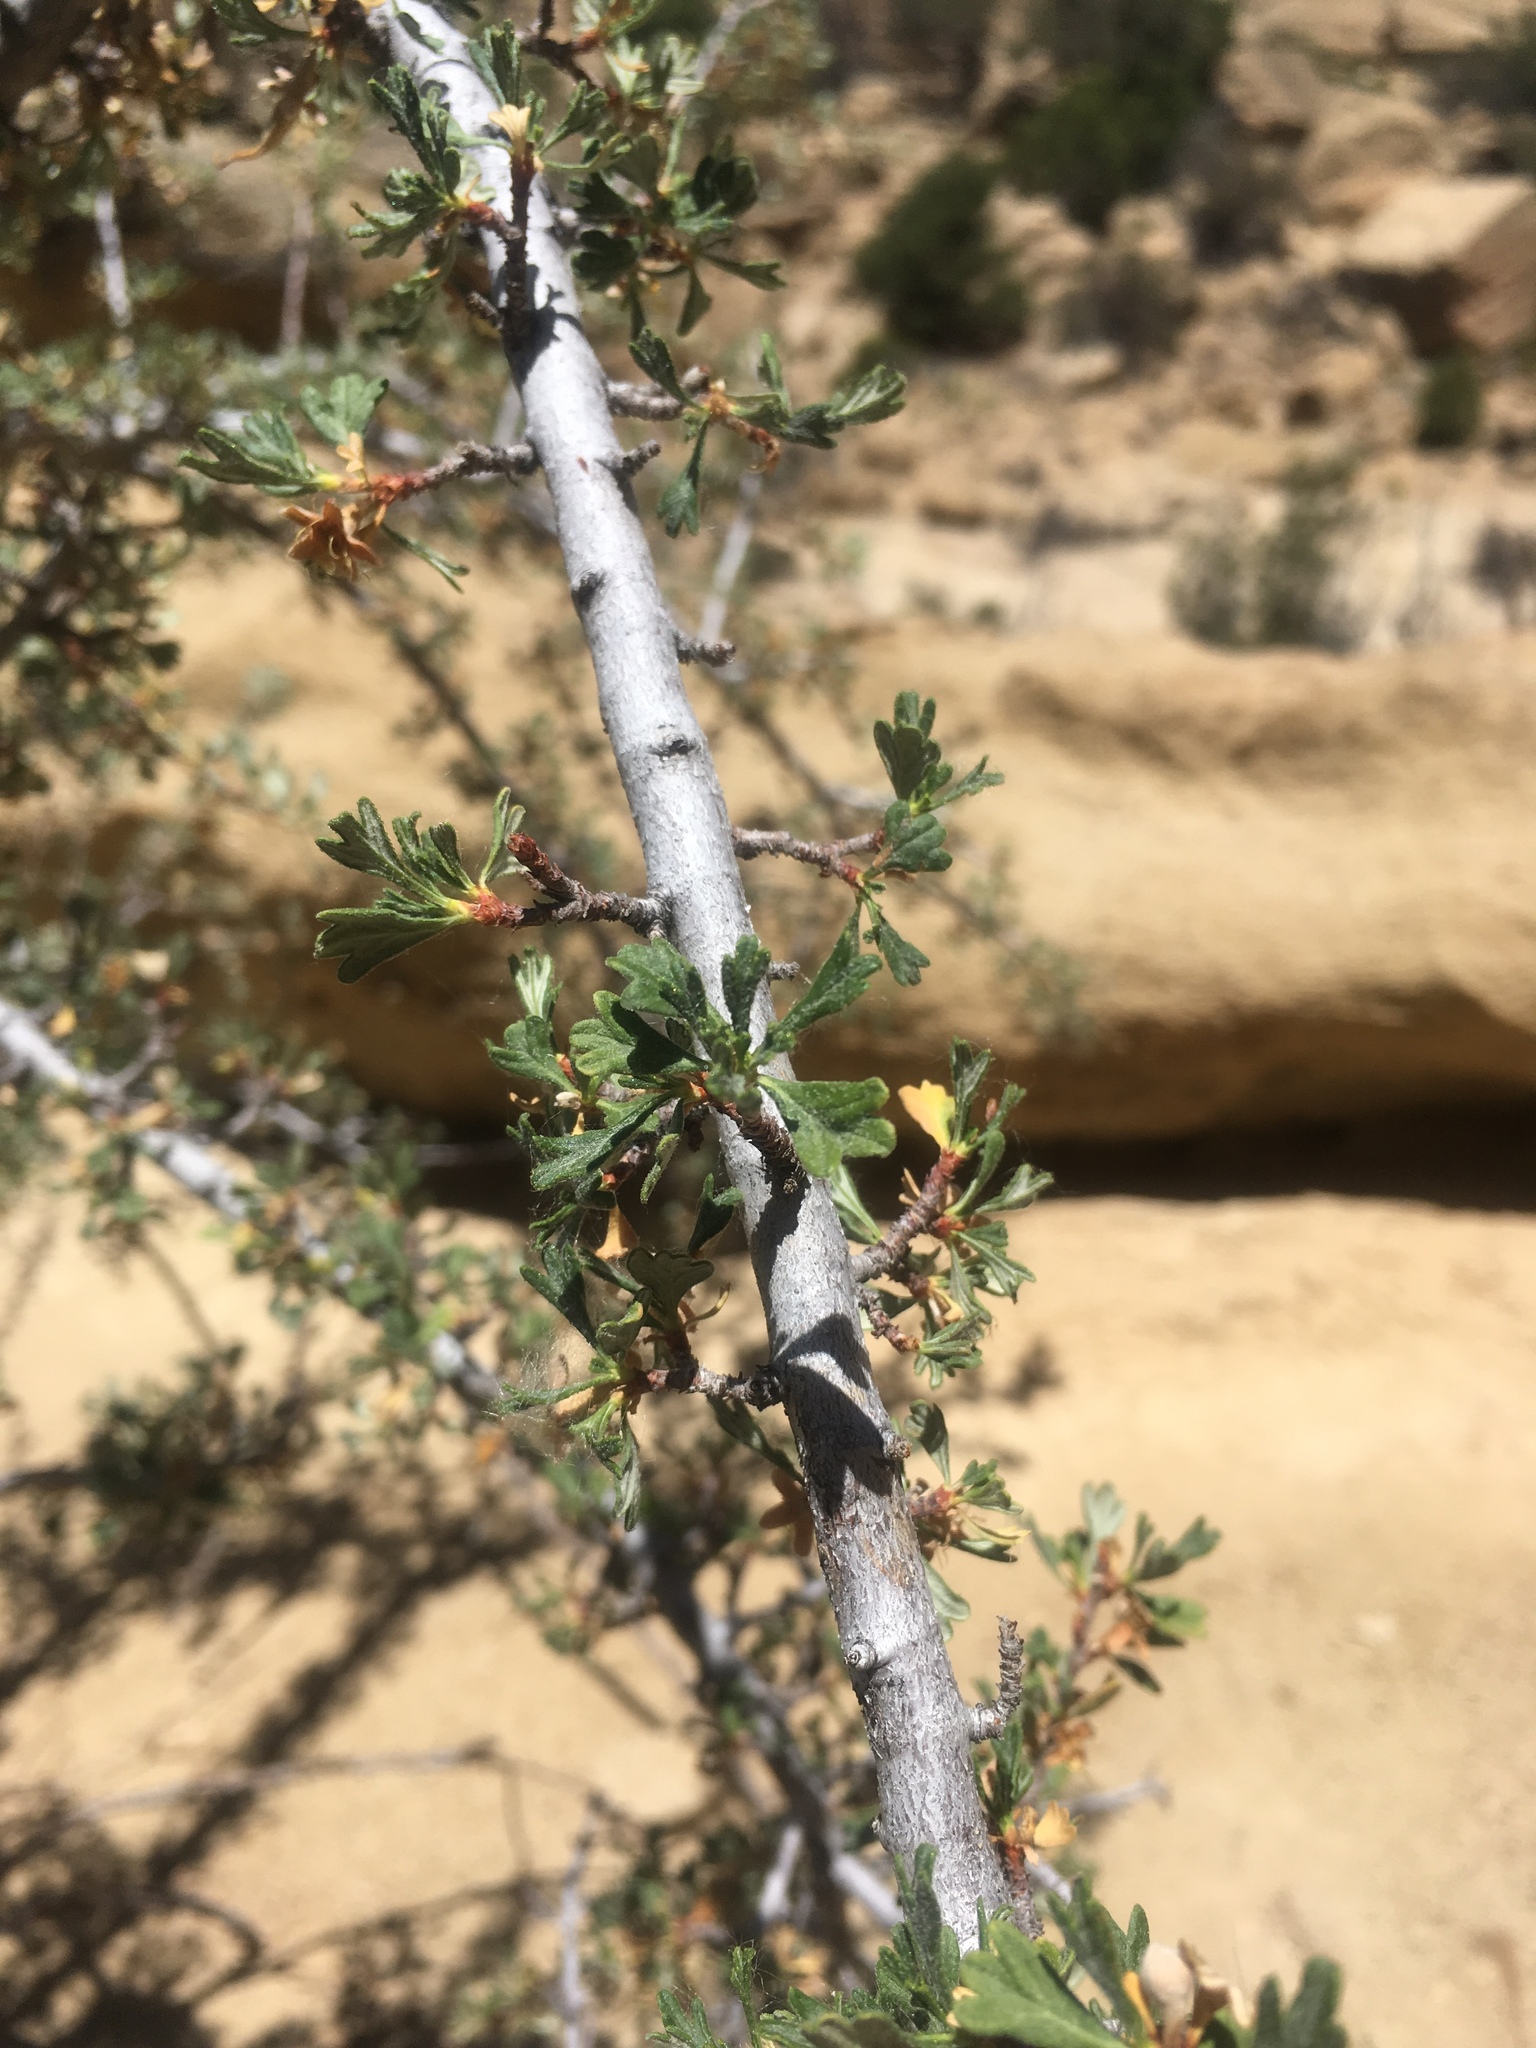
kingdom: Plantae
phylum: Tracheophyta
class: Magnoliopsida
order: Rosales
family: Rosaceae
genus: Purshia
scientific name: Purshia tridentata
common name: Antelope bitterbrush
